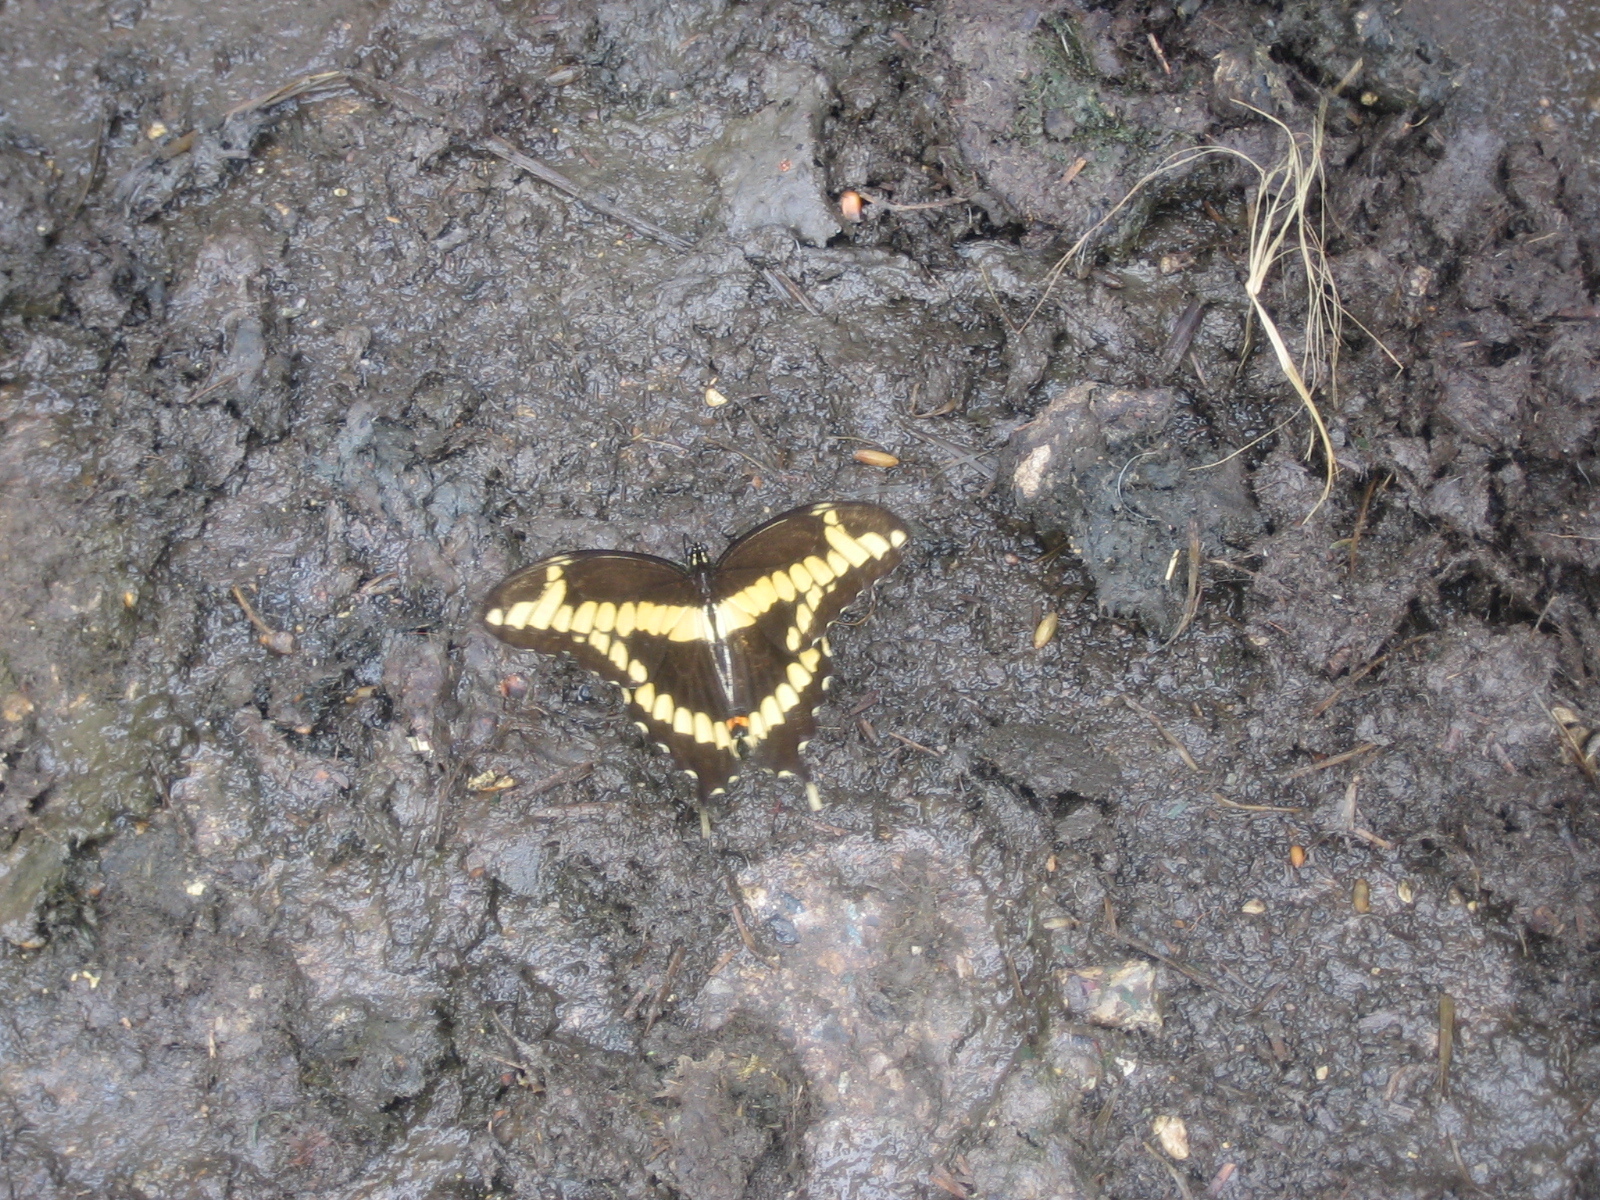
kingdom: Animalia
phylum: Arthropoda
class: Insecta
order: Lepidoptera
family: Papilionidae
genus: Papilio
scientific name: Papilio cresphontes
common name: Giant swallowtail
